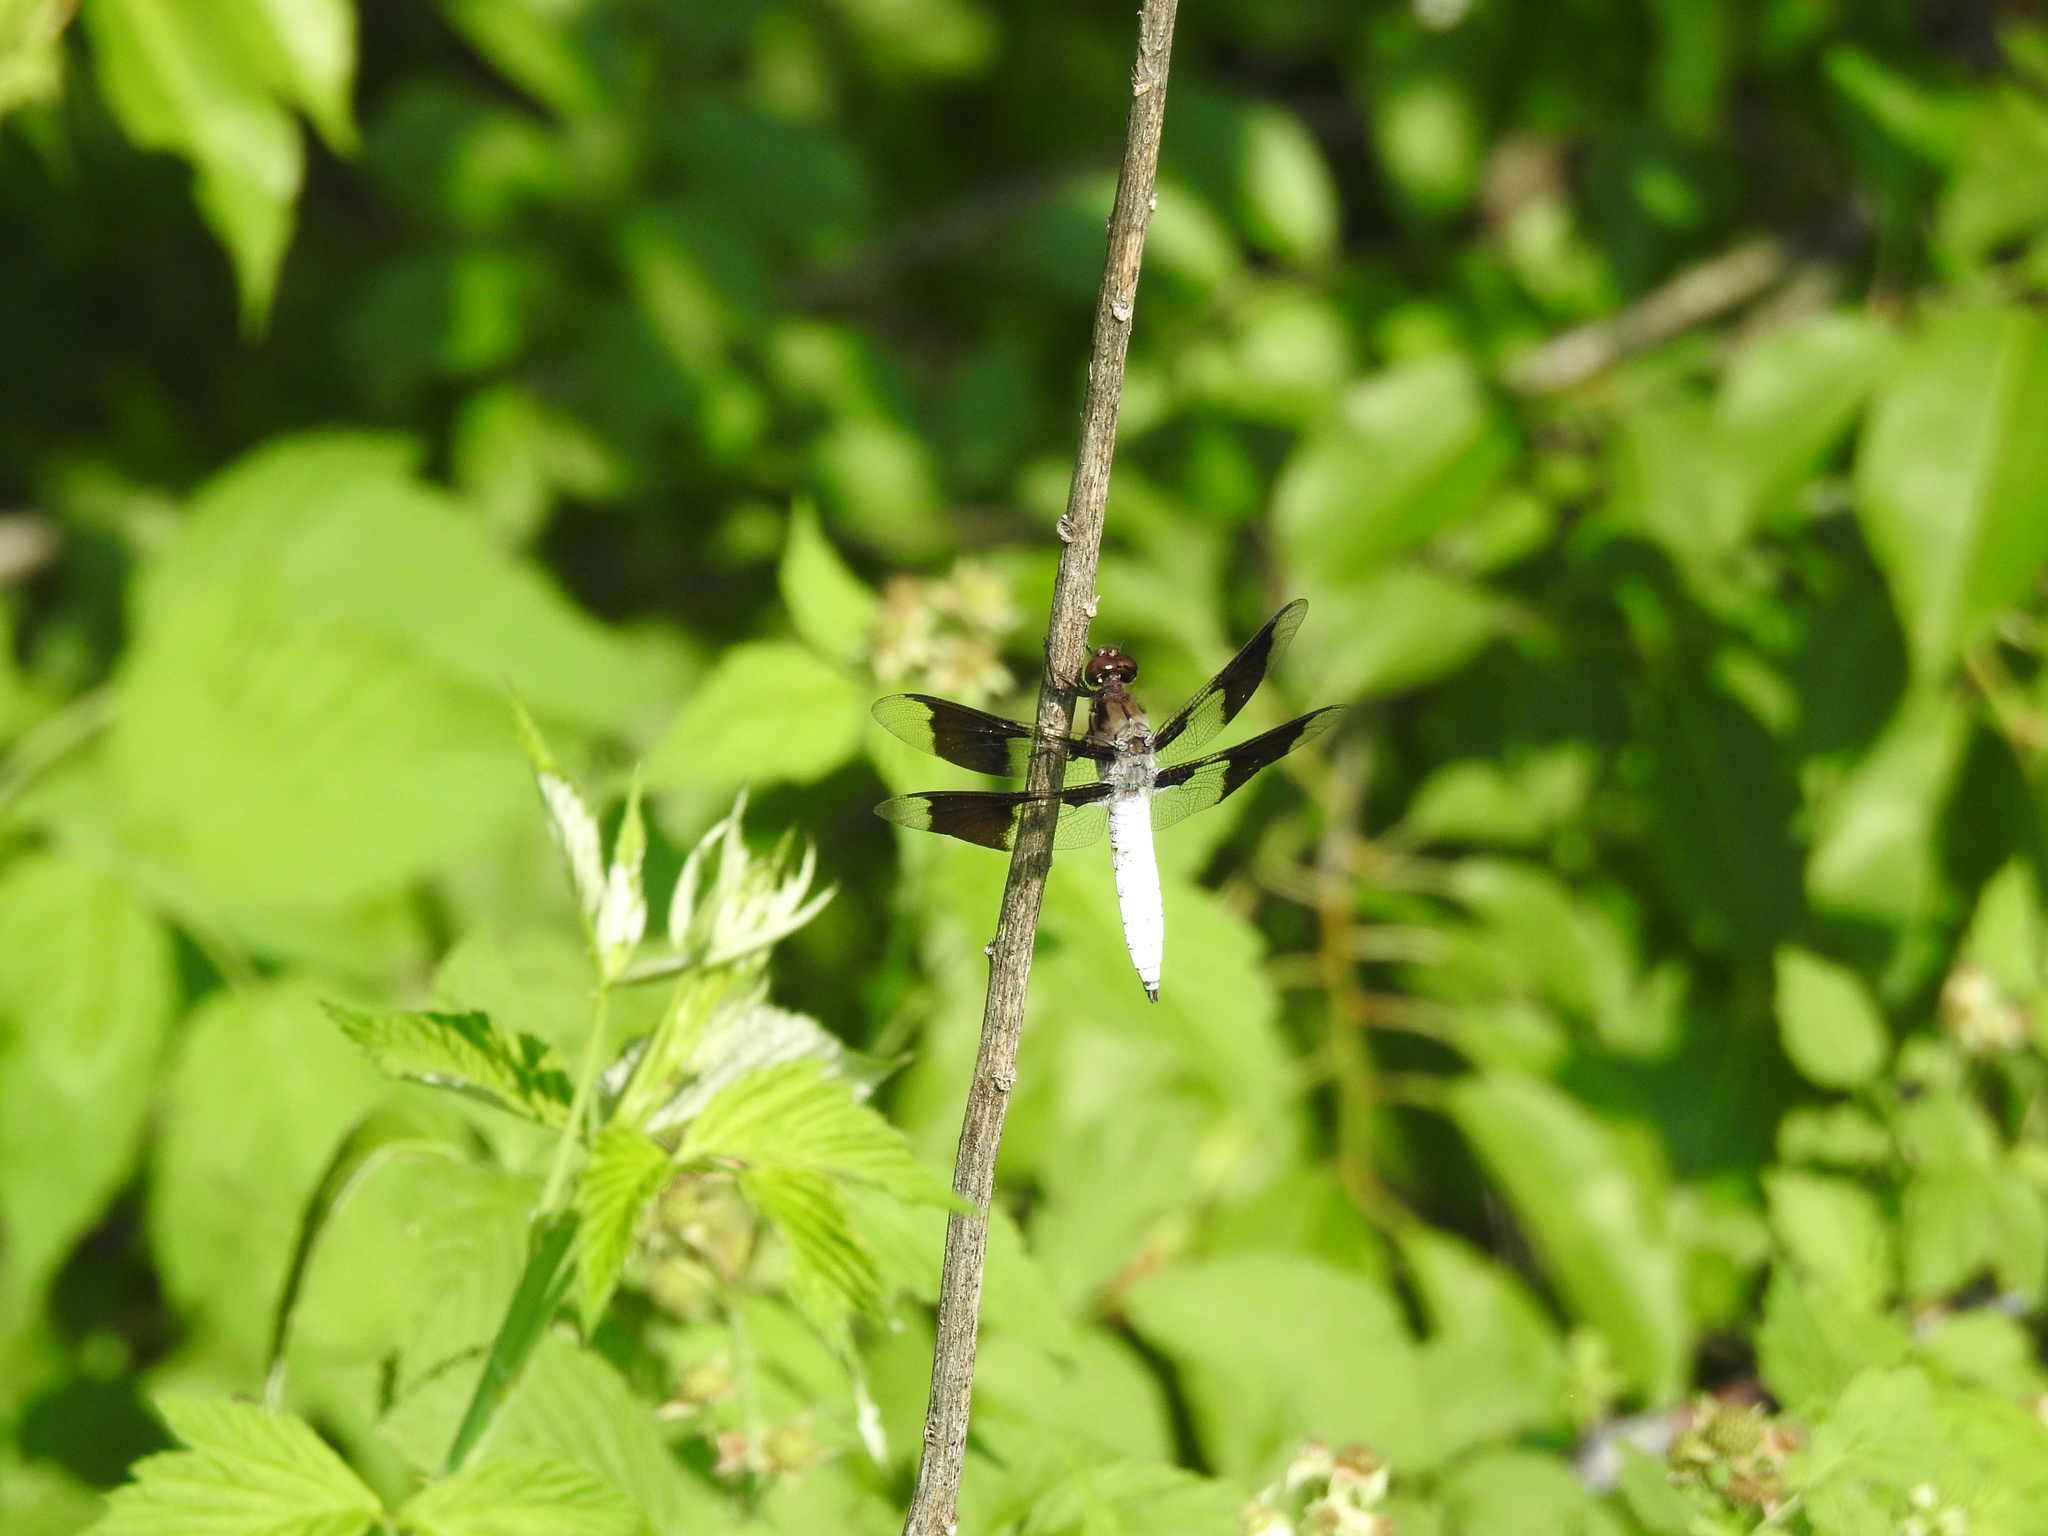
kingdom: Animalia
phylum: Arthropoda
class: Insecta
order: Odonata
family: Libellulidae
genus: Plathemis
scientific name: Plathemis lydia
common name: Common whitetail
